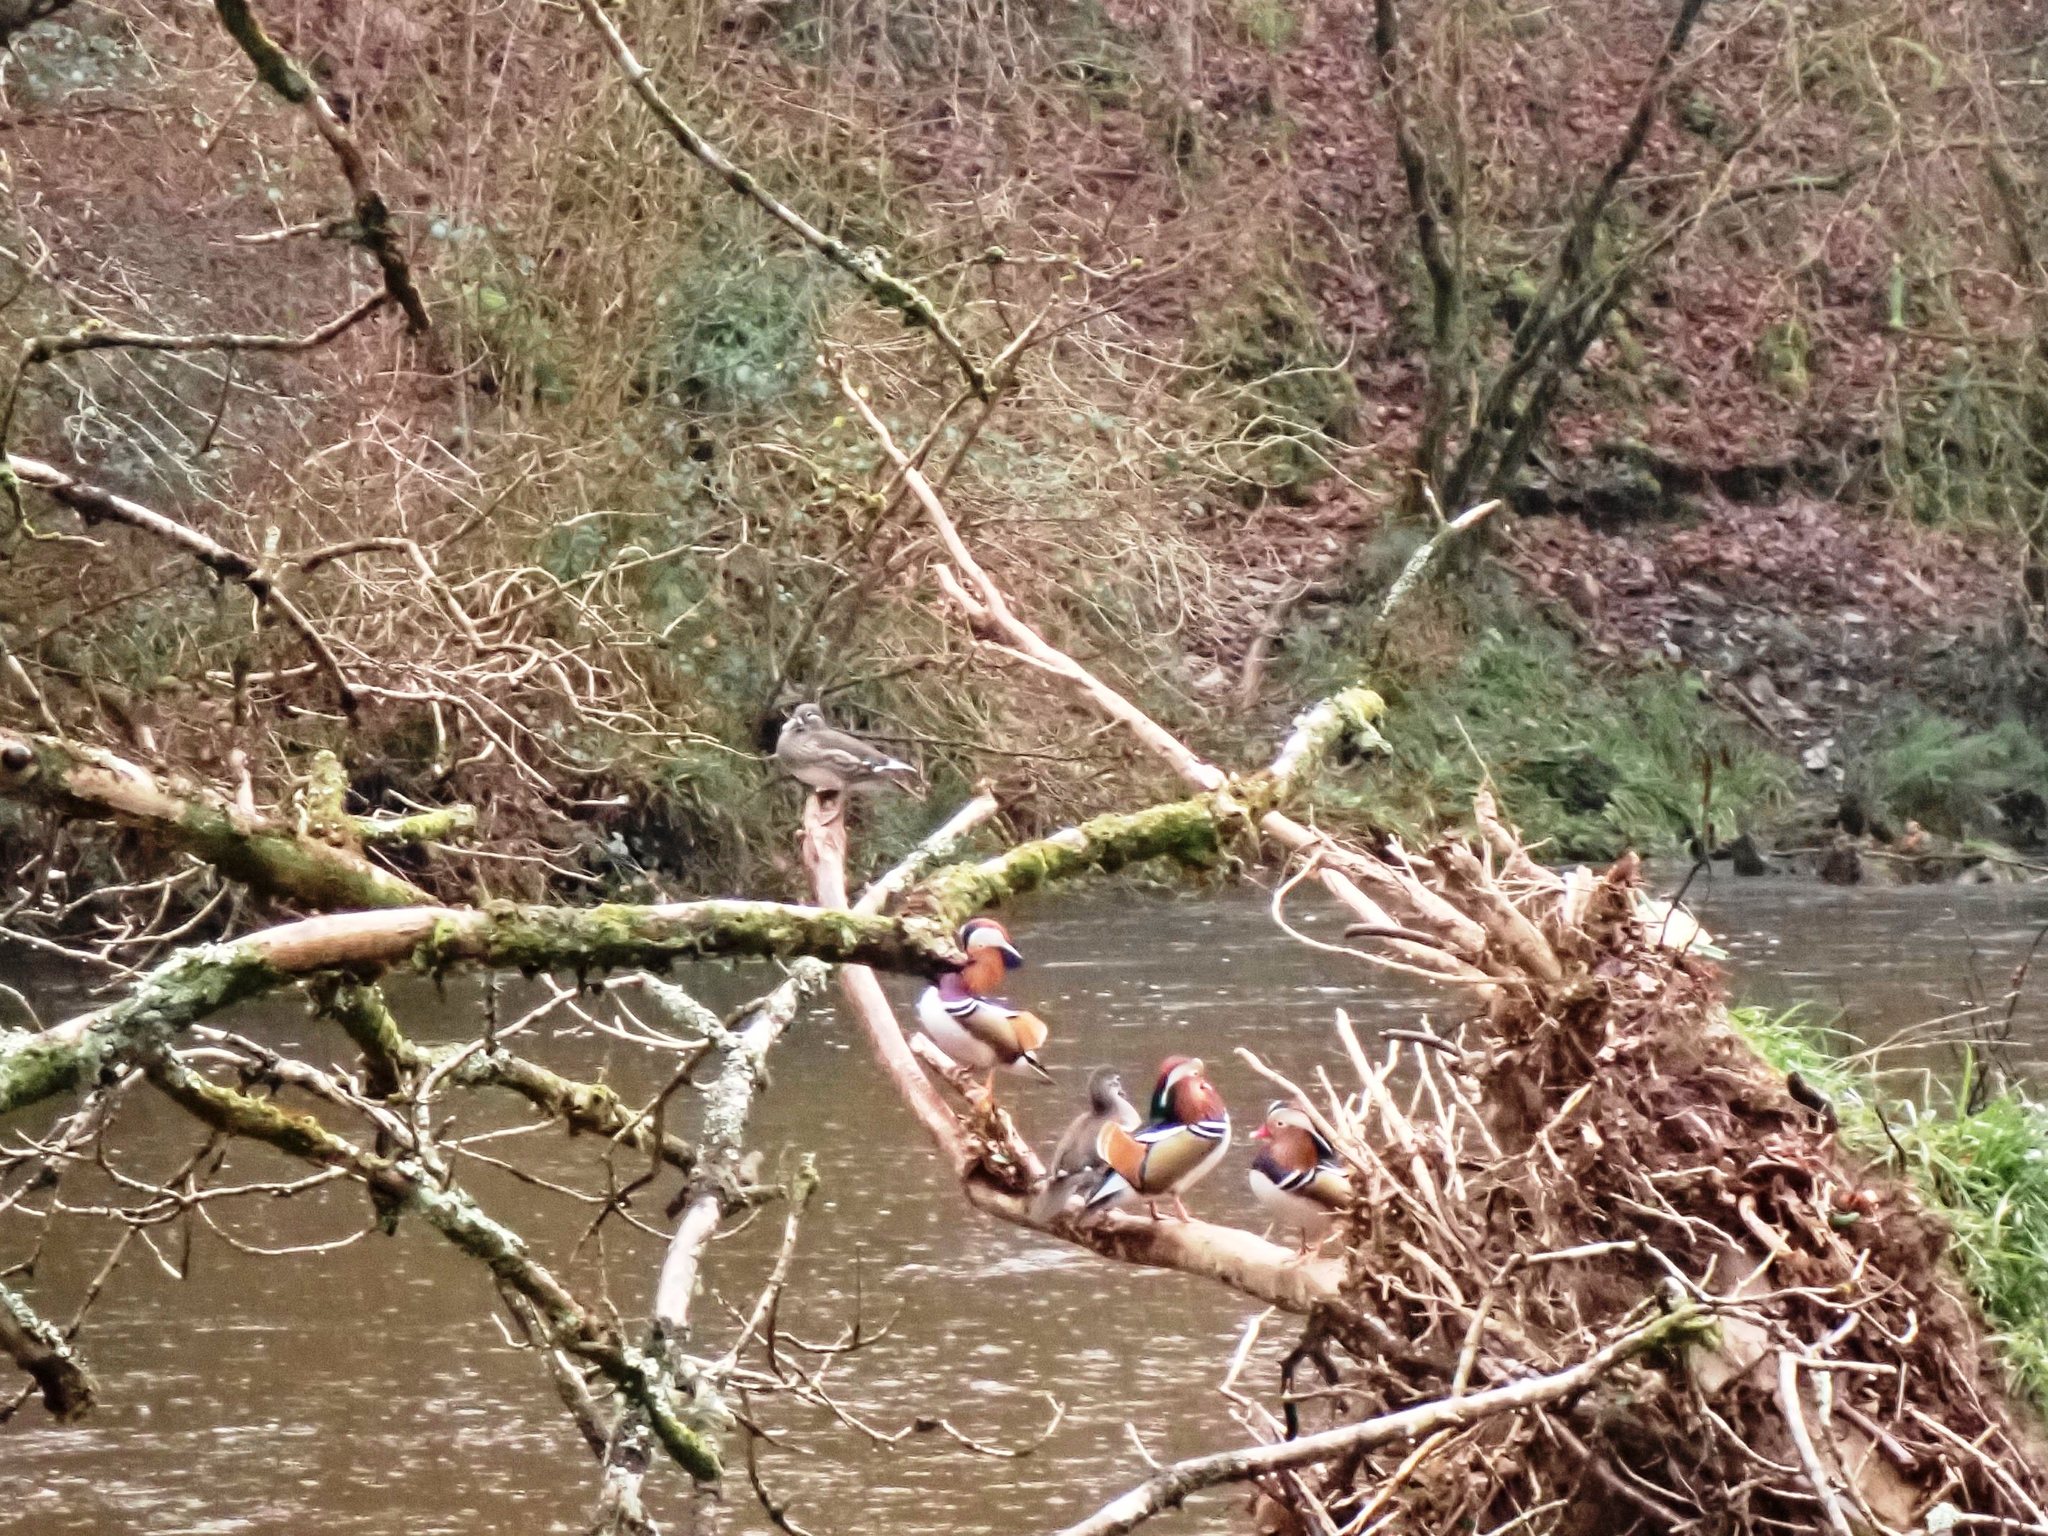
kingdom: Animalia
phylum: Chordata
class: Aves
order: Anseriformes
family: Anatidae
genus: Aix
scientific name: Aix galericulata
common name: Mandarin duck
